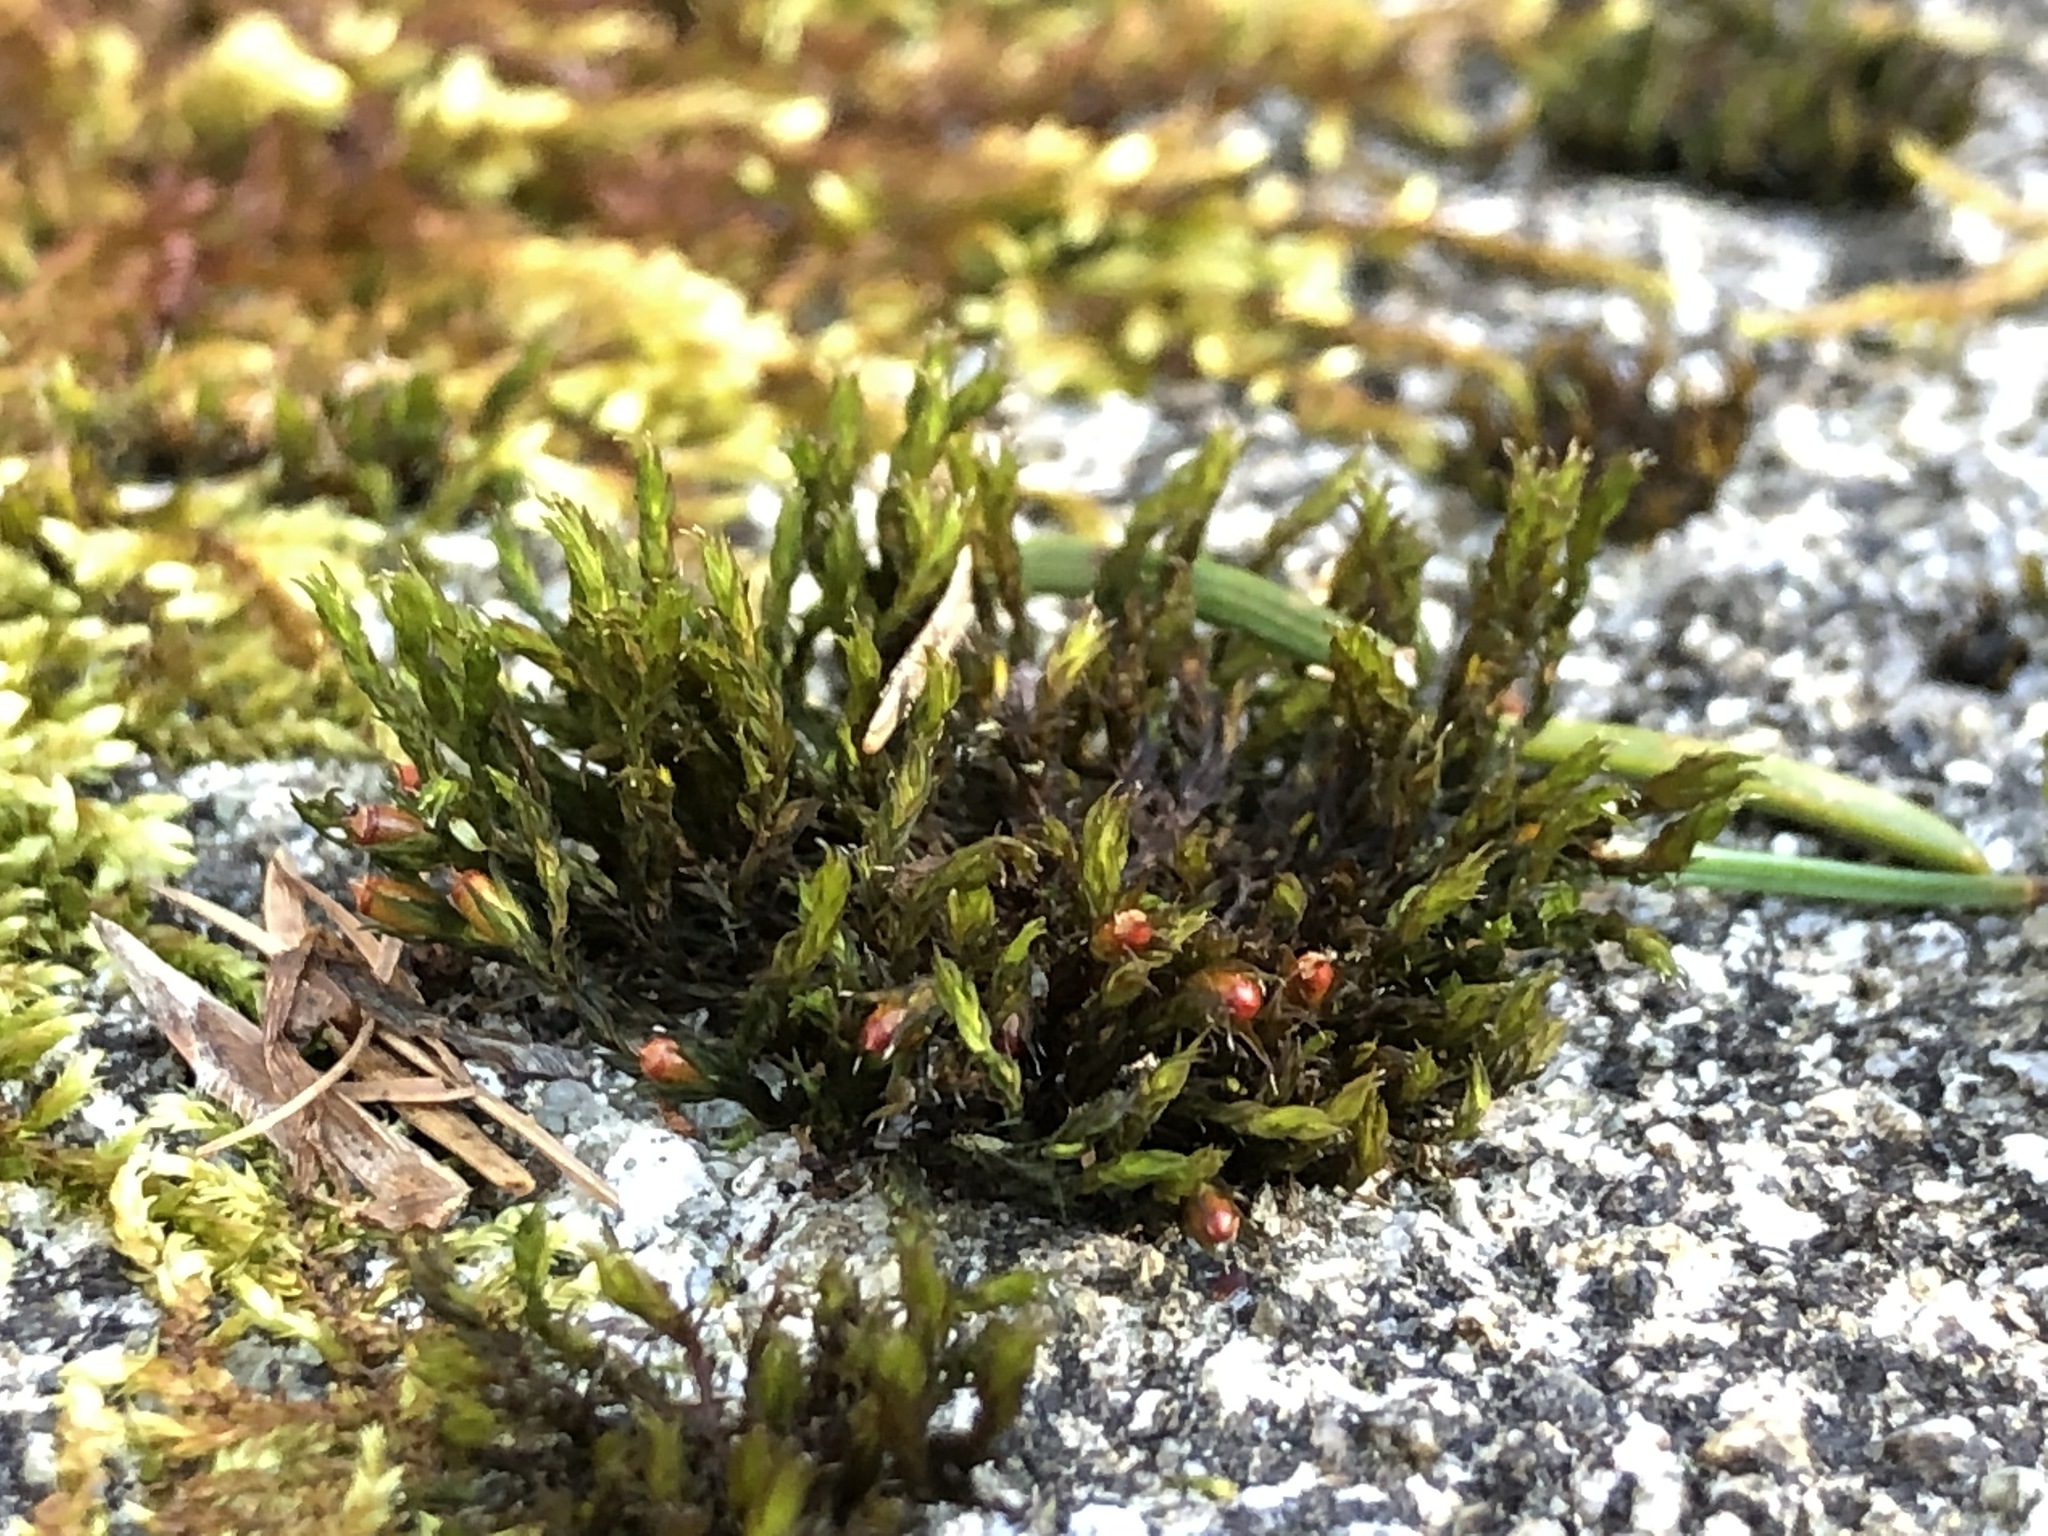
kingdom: Plantae
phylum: Bryophyta
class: Bryopsida
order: Grimmiales
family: Grimmiaceae
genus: Schistidium
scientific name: Schistidium apocarpum
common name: Radiate bloom moss
